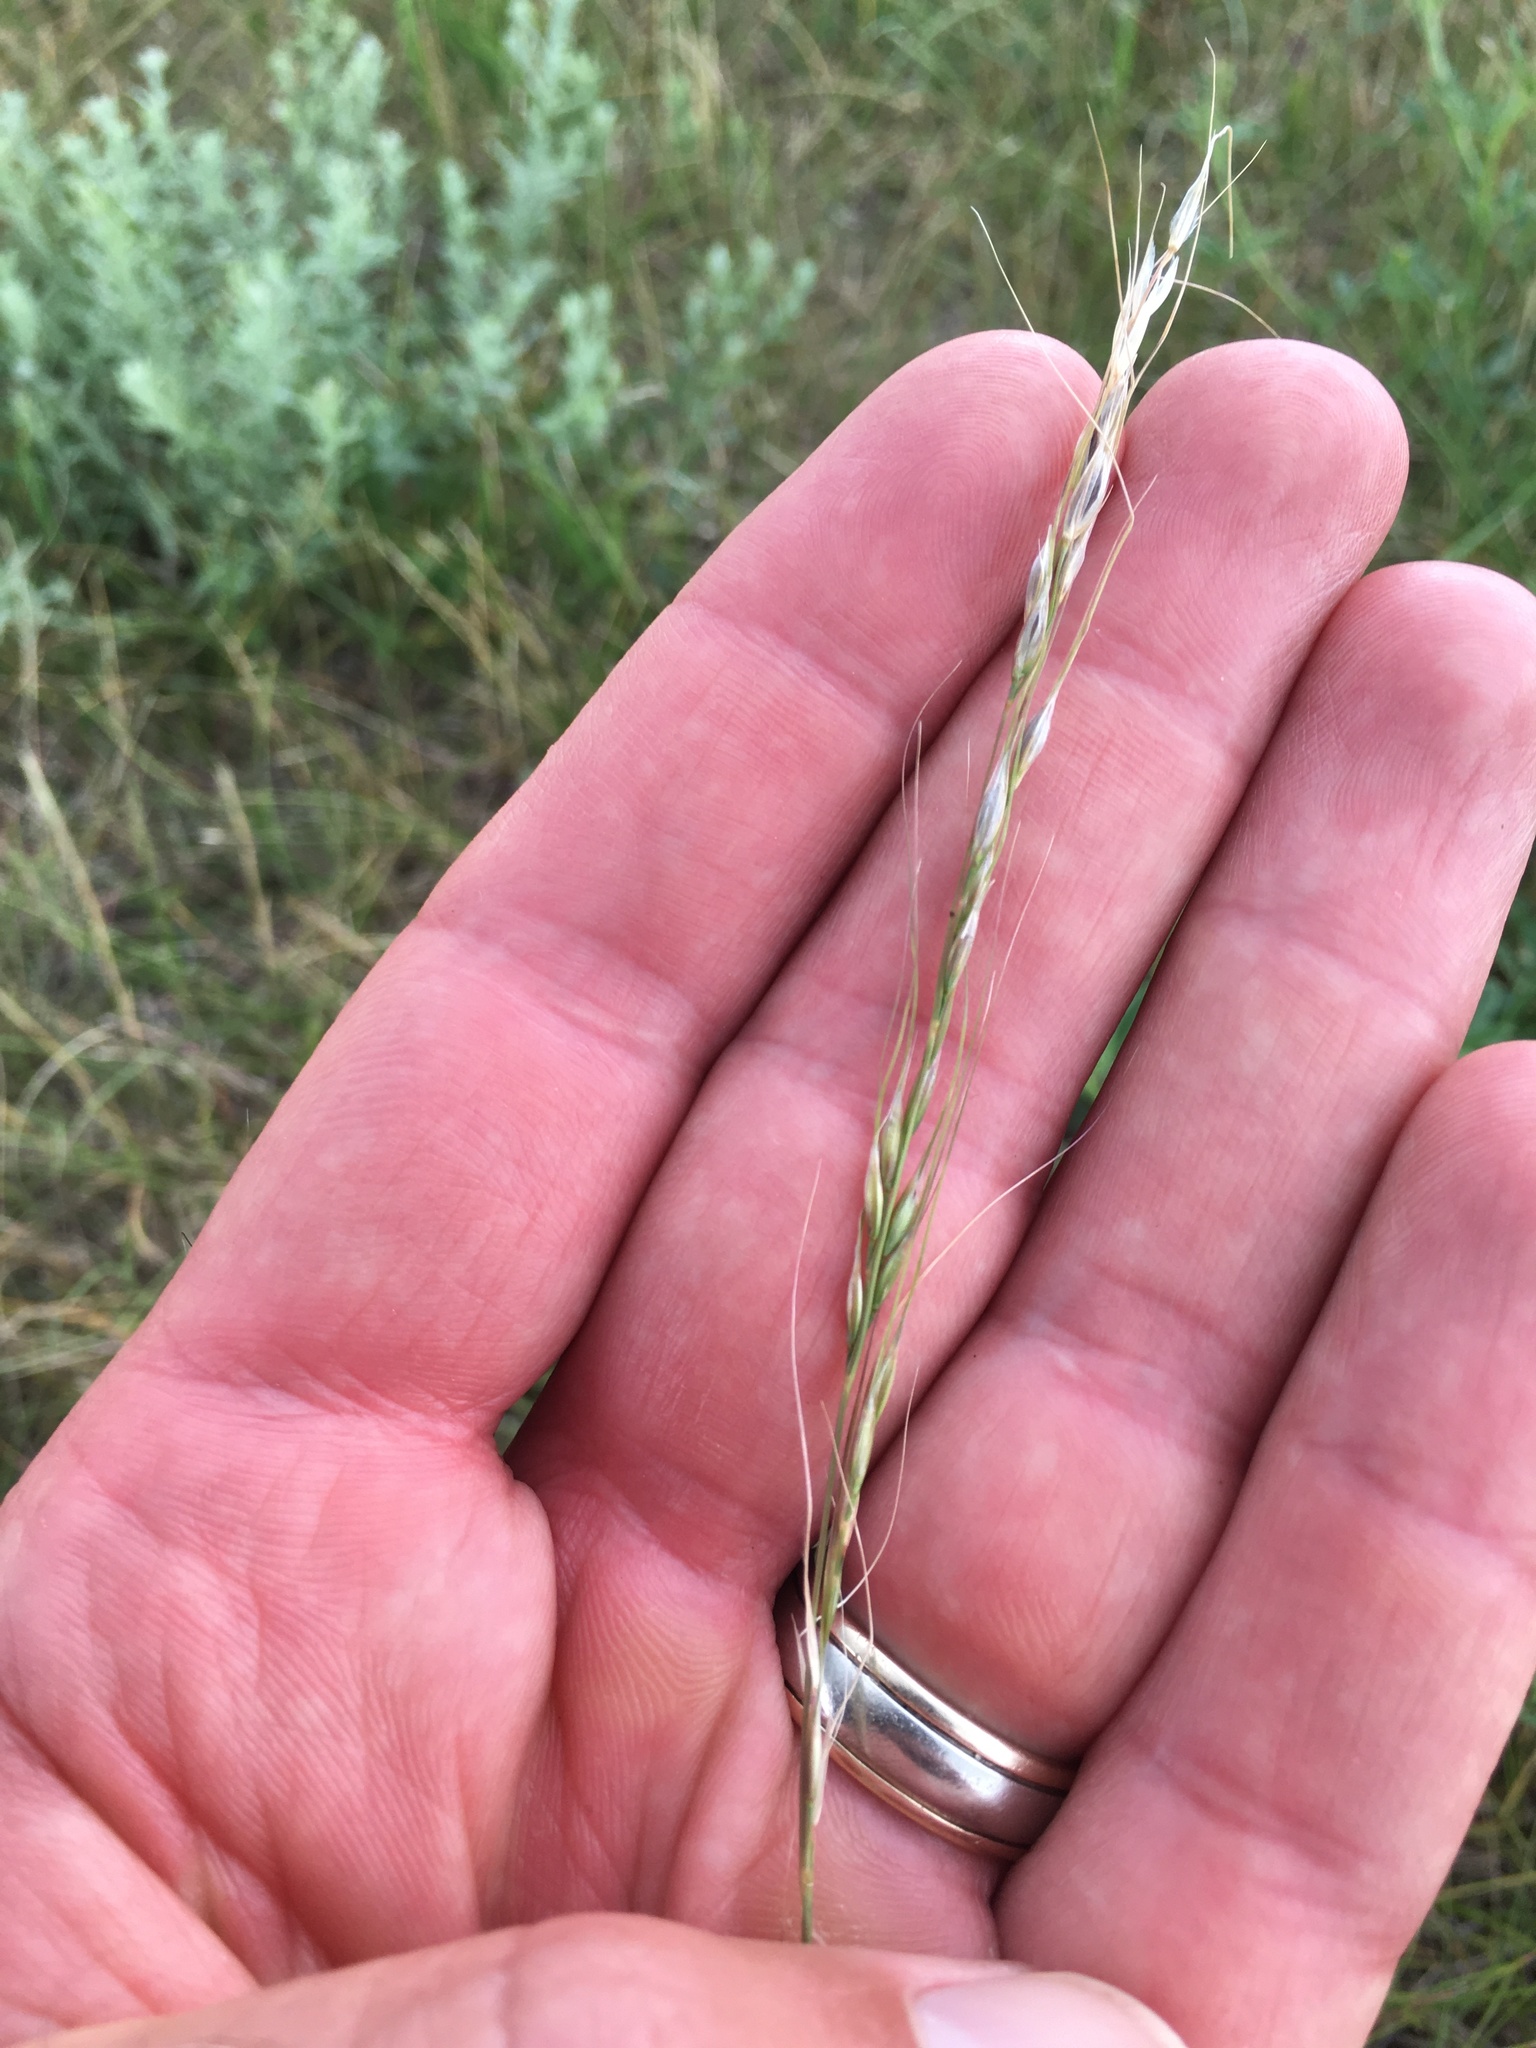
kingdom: Plantae
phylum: Tracheophyta
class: Liliopsida
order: Poales
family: Poaceae
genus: Nassella
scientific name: Nassella viridula
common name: Green needlegrass
